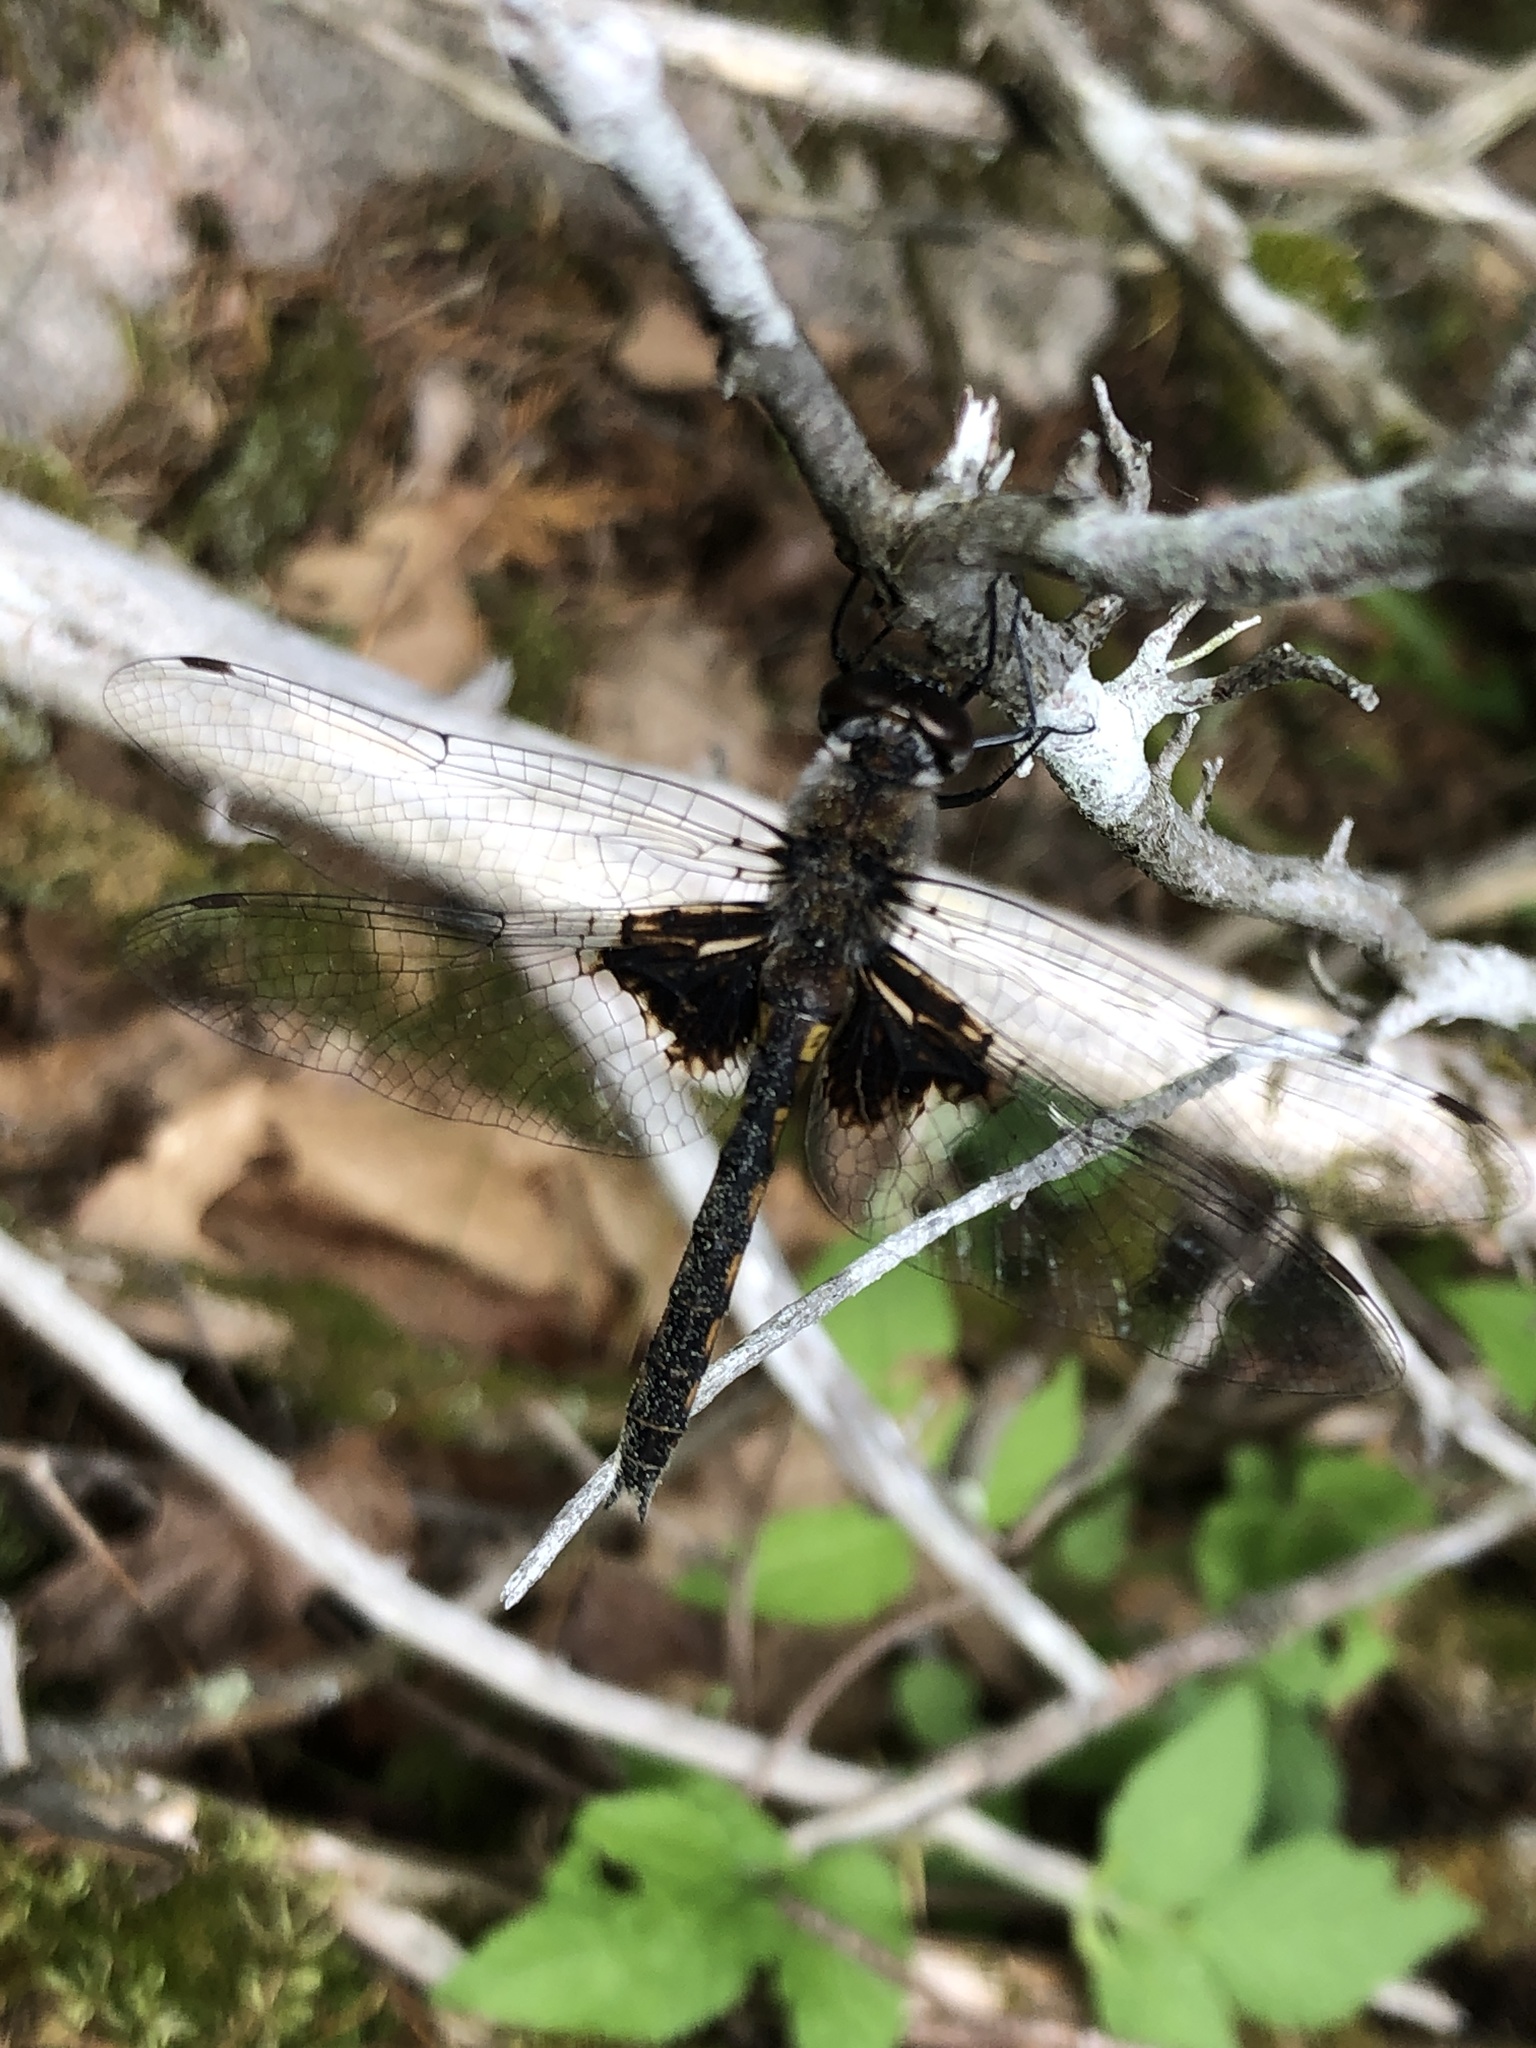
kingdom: Animalia
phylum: Arthropoda
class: Insecta
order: Odonata
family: Corduliidae
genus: Epitheca
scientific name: Epitheca cynosura
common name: Common baskettail
